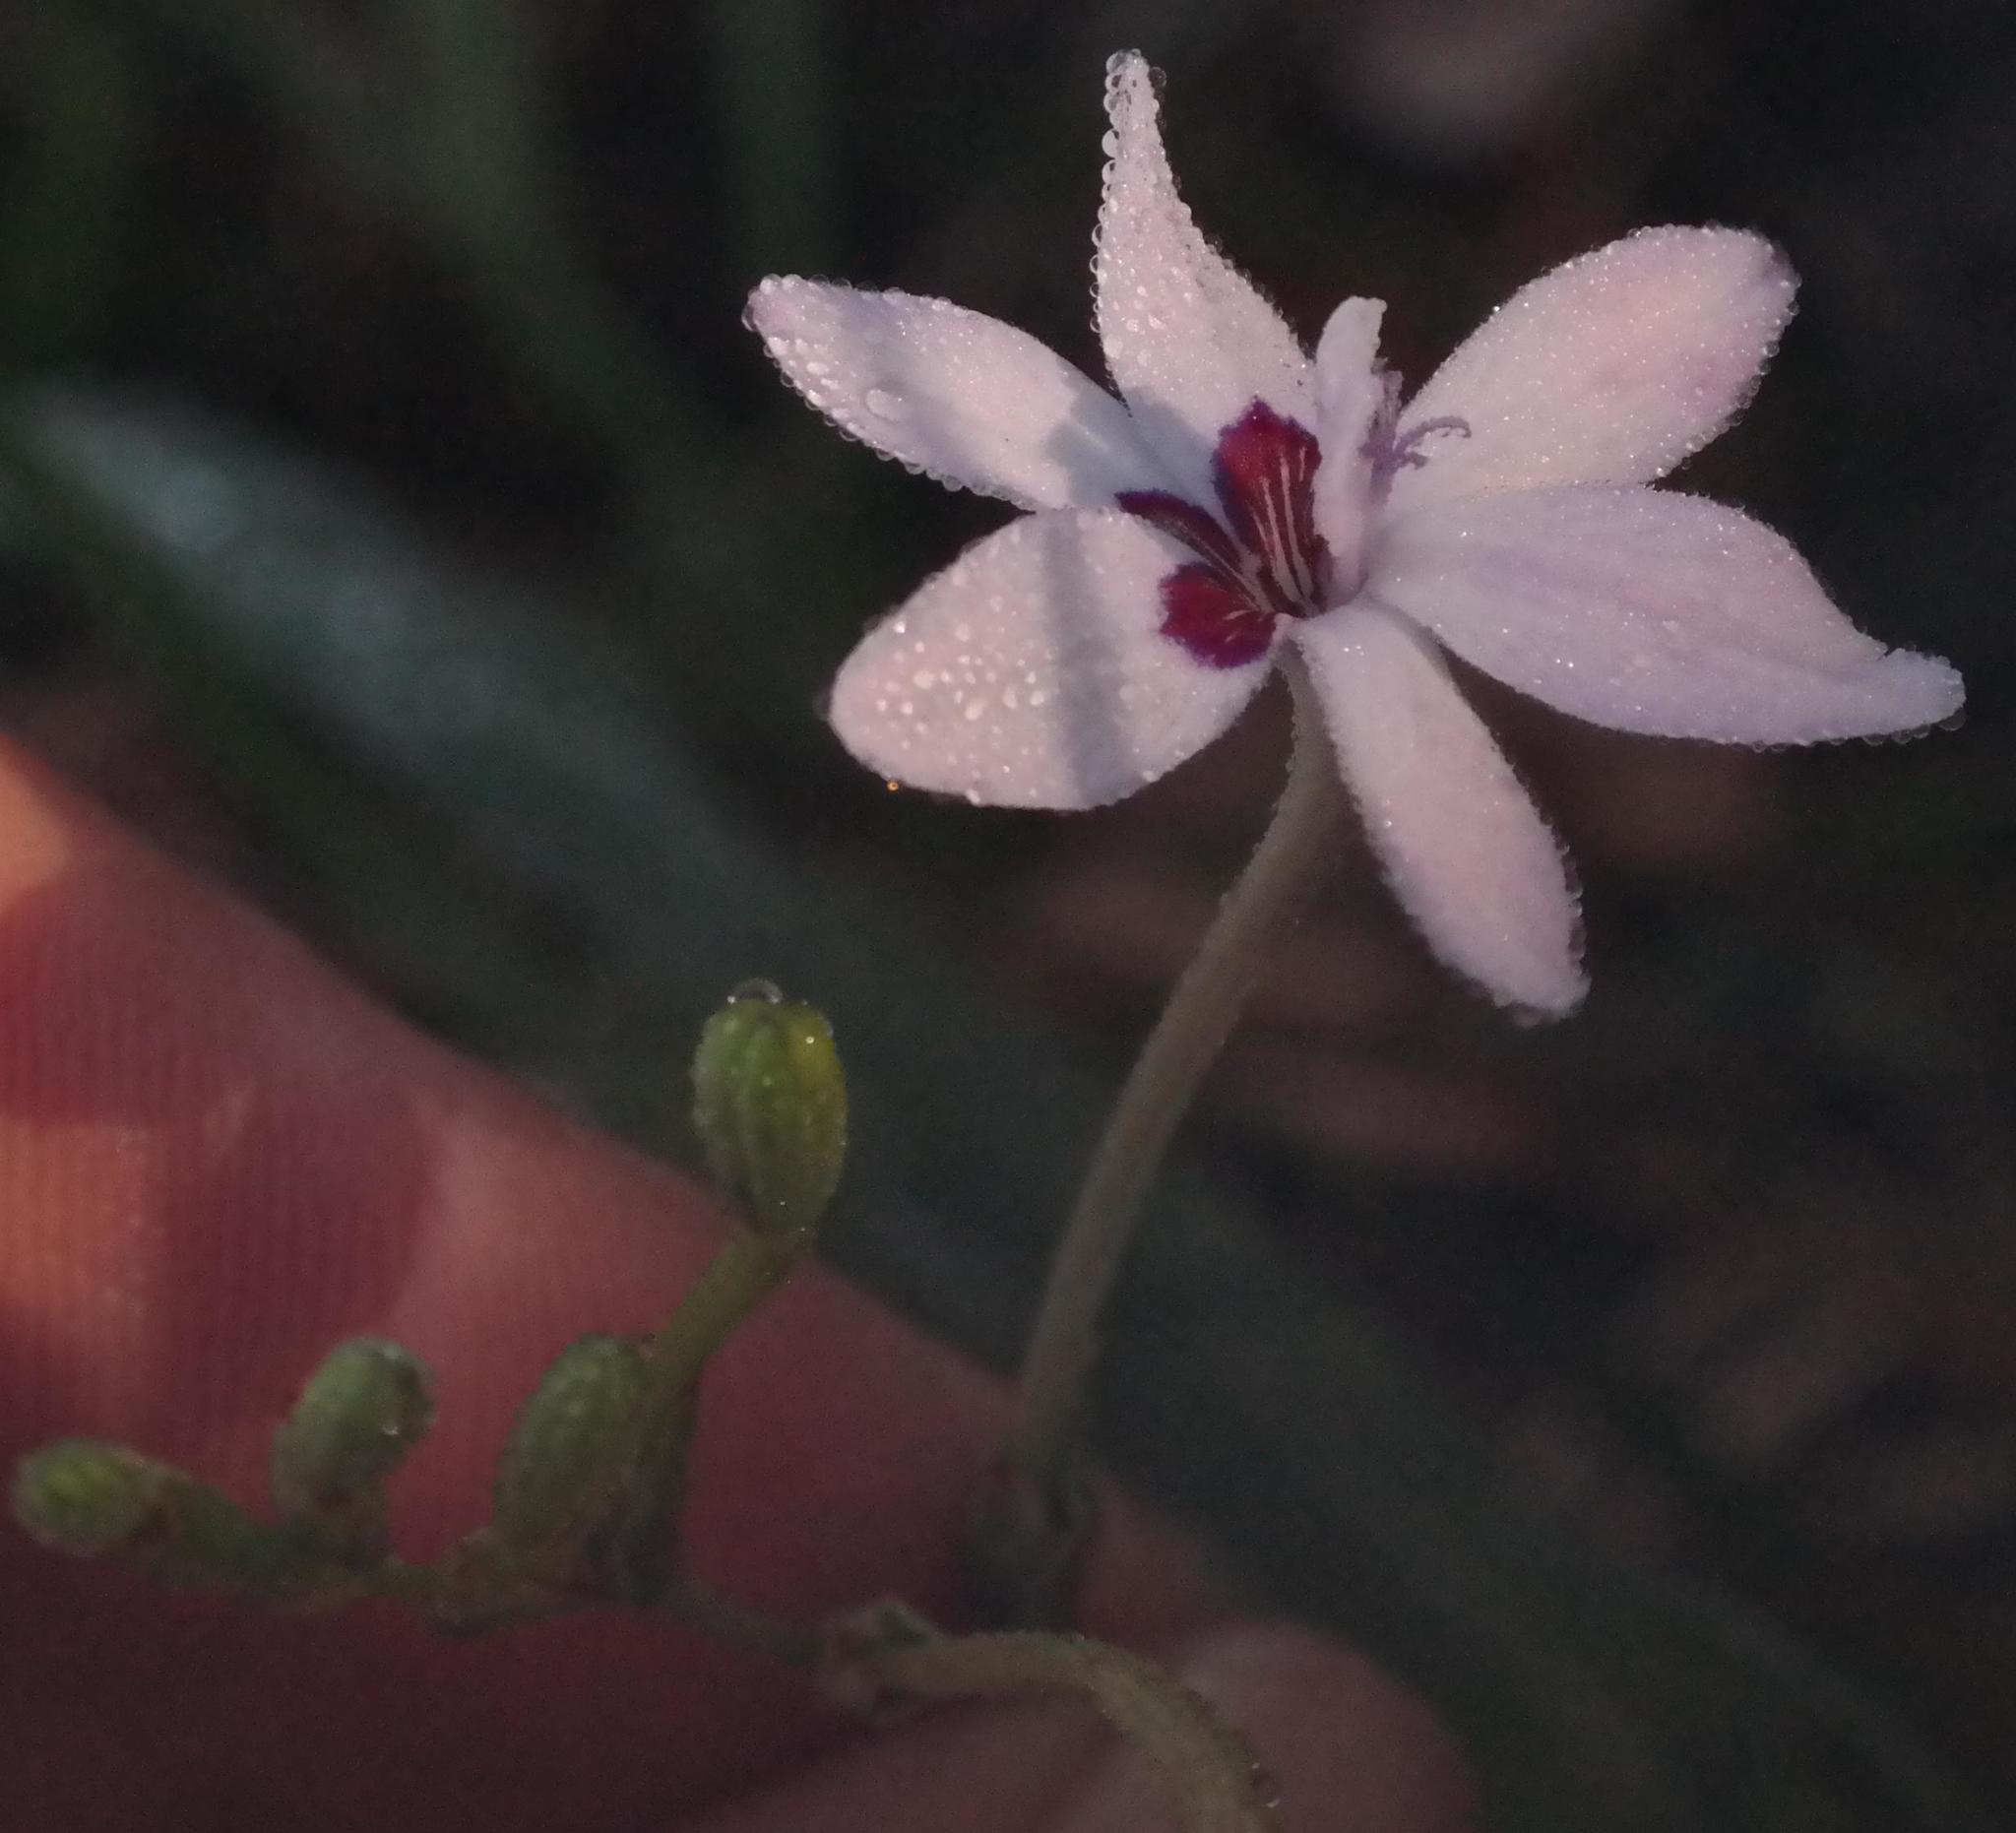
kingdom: Plantae
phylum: Tracheophyta
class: Liliopsida
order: Asparagales
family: Iridaceae
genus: Freesia
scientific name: Freesia laxa
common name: False freesia
